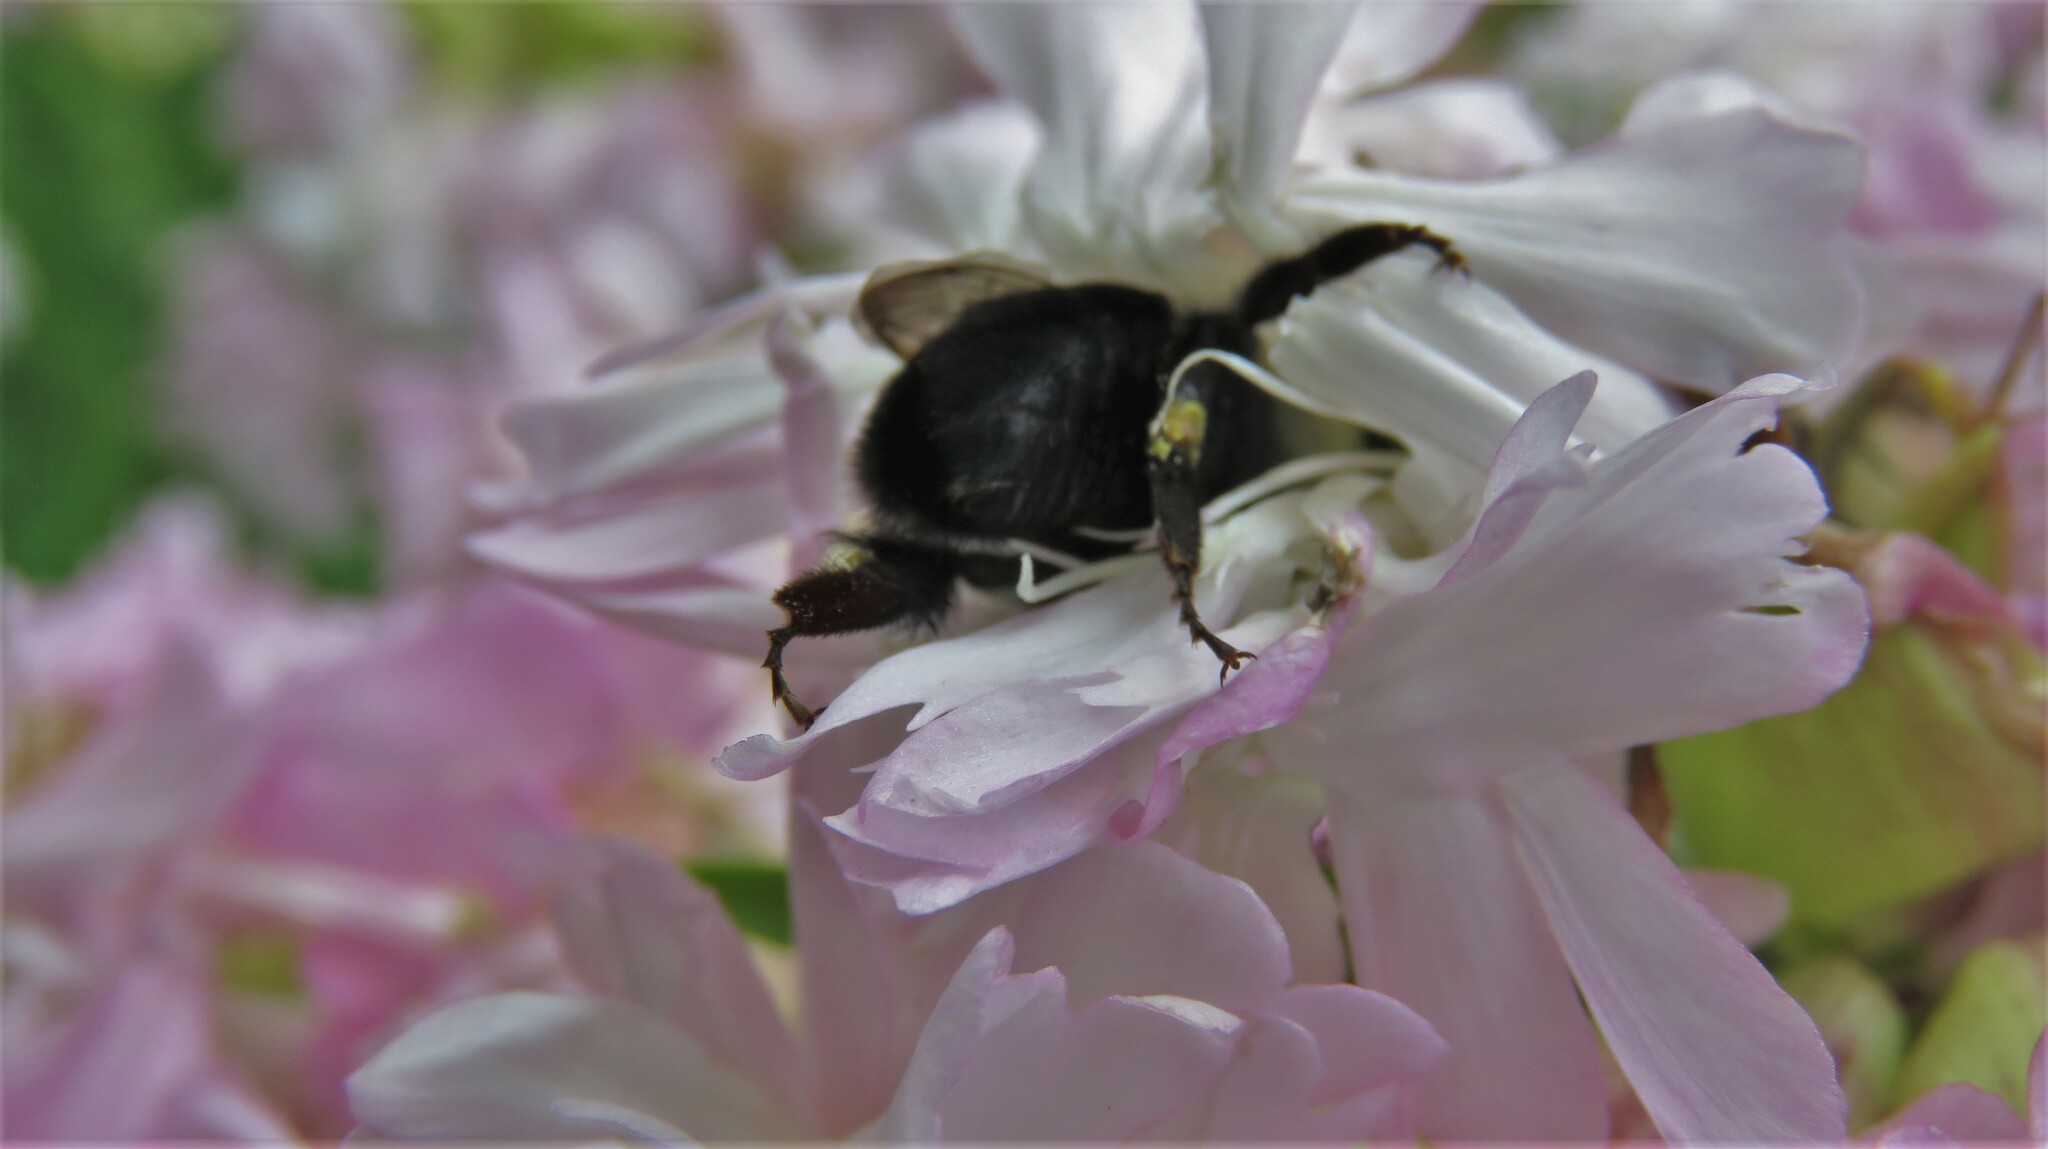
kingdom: Animalia
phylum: Arthropoda
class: Insecta
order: Hymenoptera
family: Apidae
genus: Bombus
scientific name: Bombus impatiens
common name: Common eastern bumble bee
